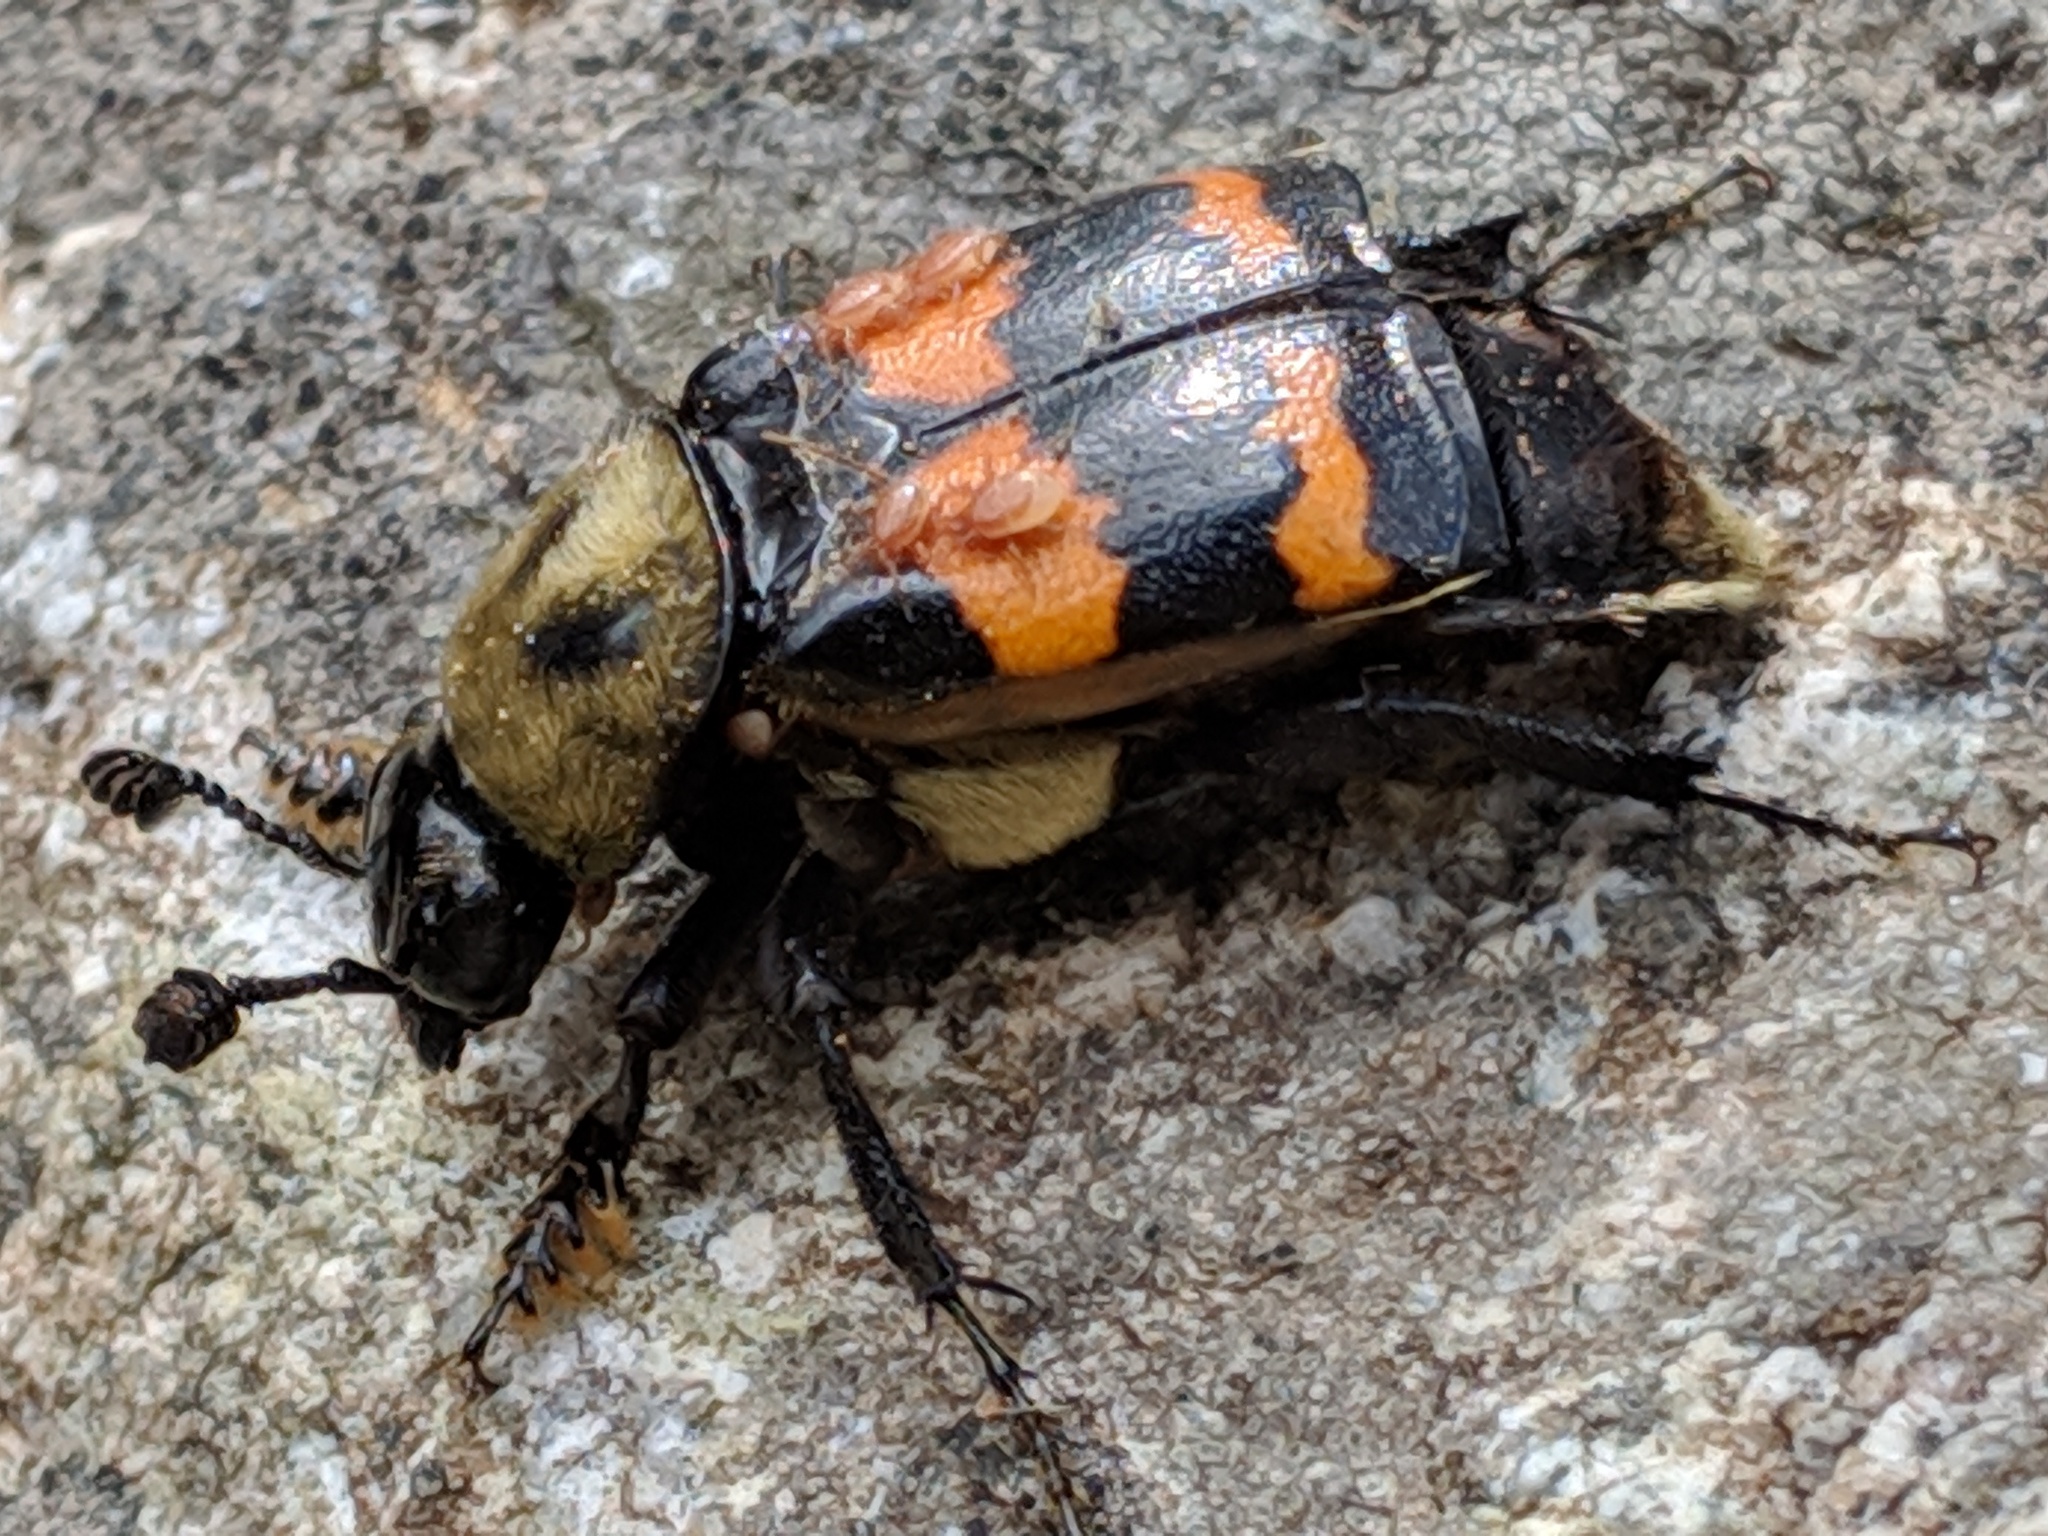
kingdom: Animalia
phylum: Arthropoda
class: Insecta
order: Coleoptera
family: Staphylinidae
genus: Nicrophorus
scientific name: Nicrophorus tomentosus
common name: Tomentose burying beetle
